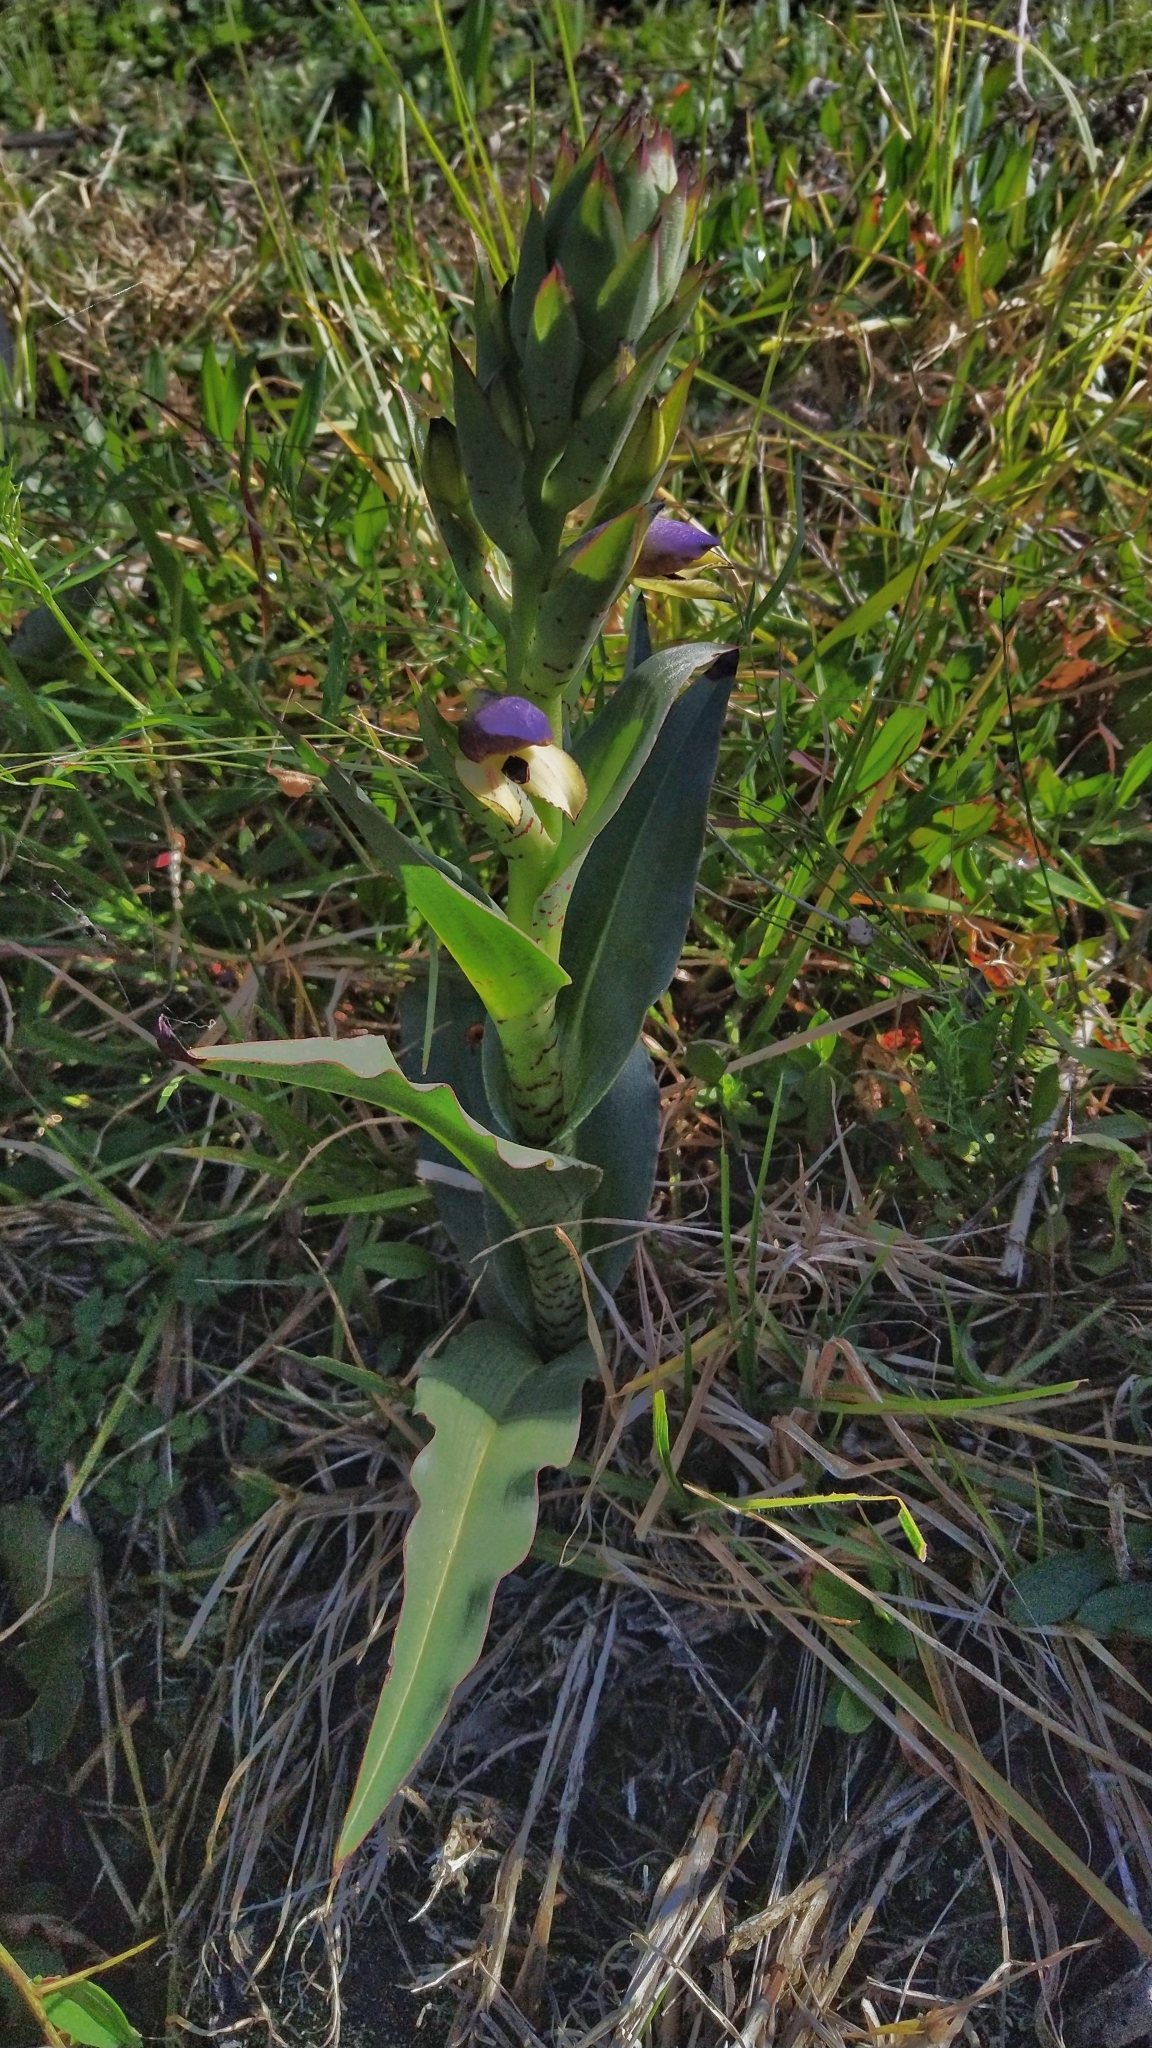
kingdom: Plantae
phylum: Tracheophyta
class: Liliopsida
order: Asparagales
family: Orchidaceae
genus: Disa
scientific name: Disa cornuta
